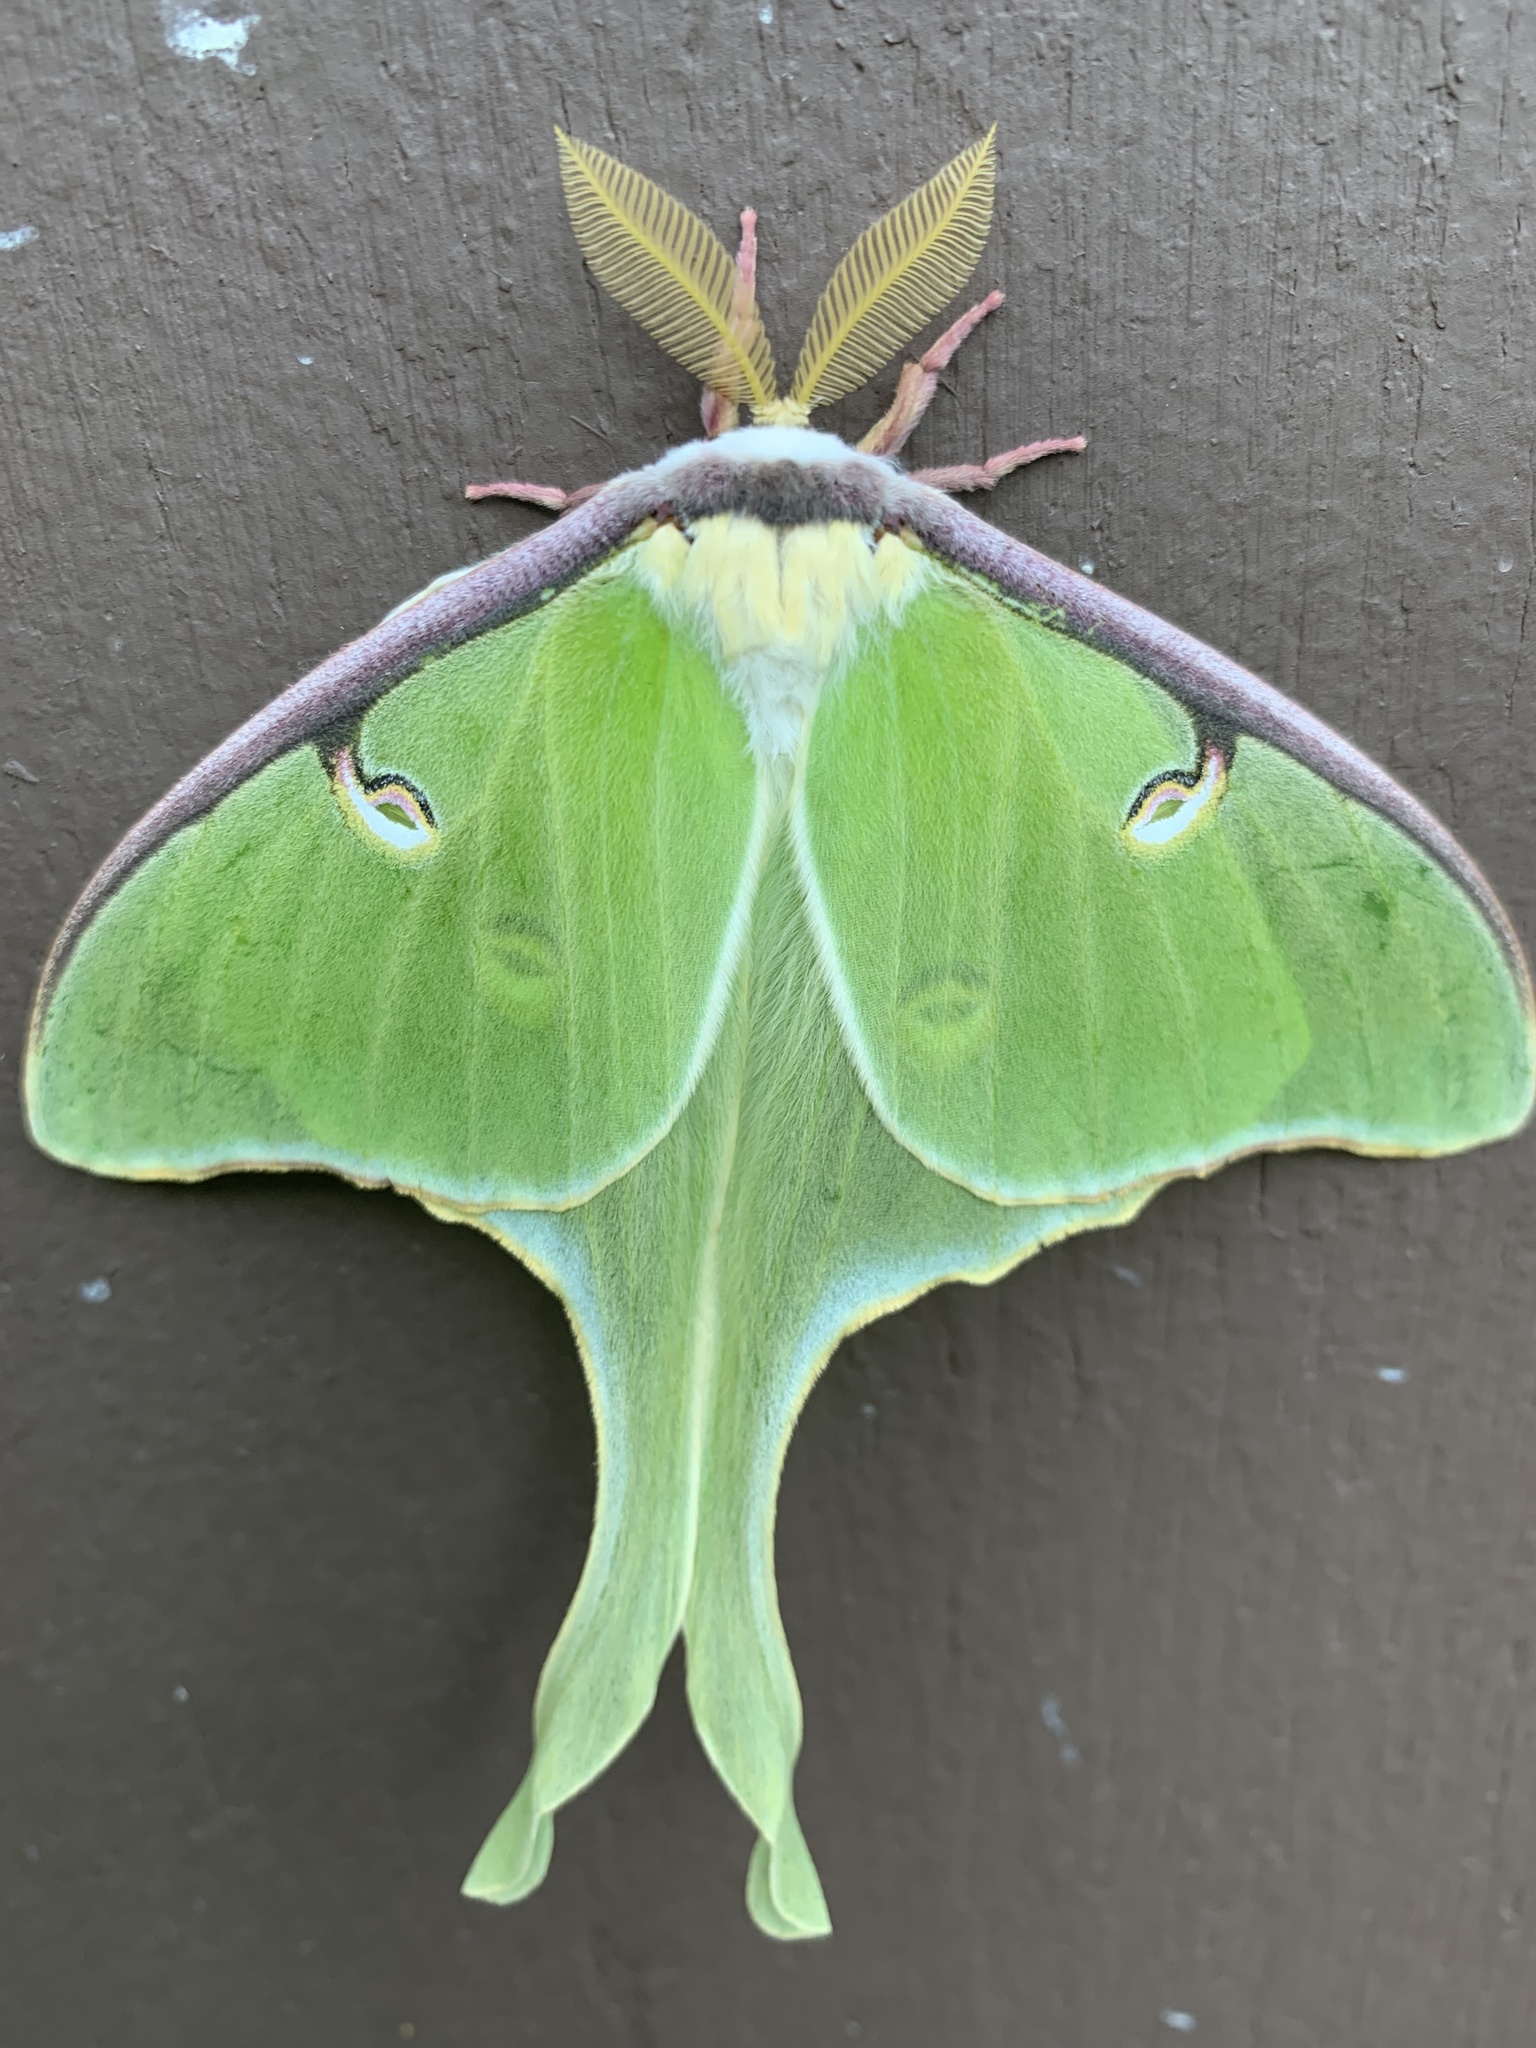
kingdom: Animalia
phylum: Arthropoda
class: Insecta
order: Lepidoptera
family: Saturniidae
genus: Actias
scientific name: Actias luna
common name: Luna moth
